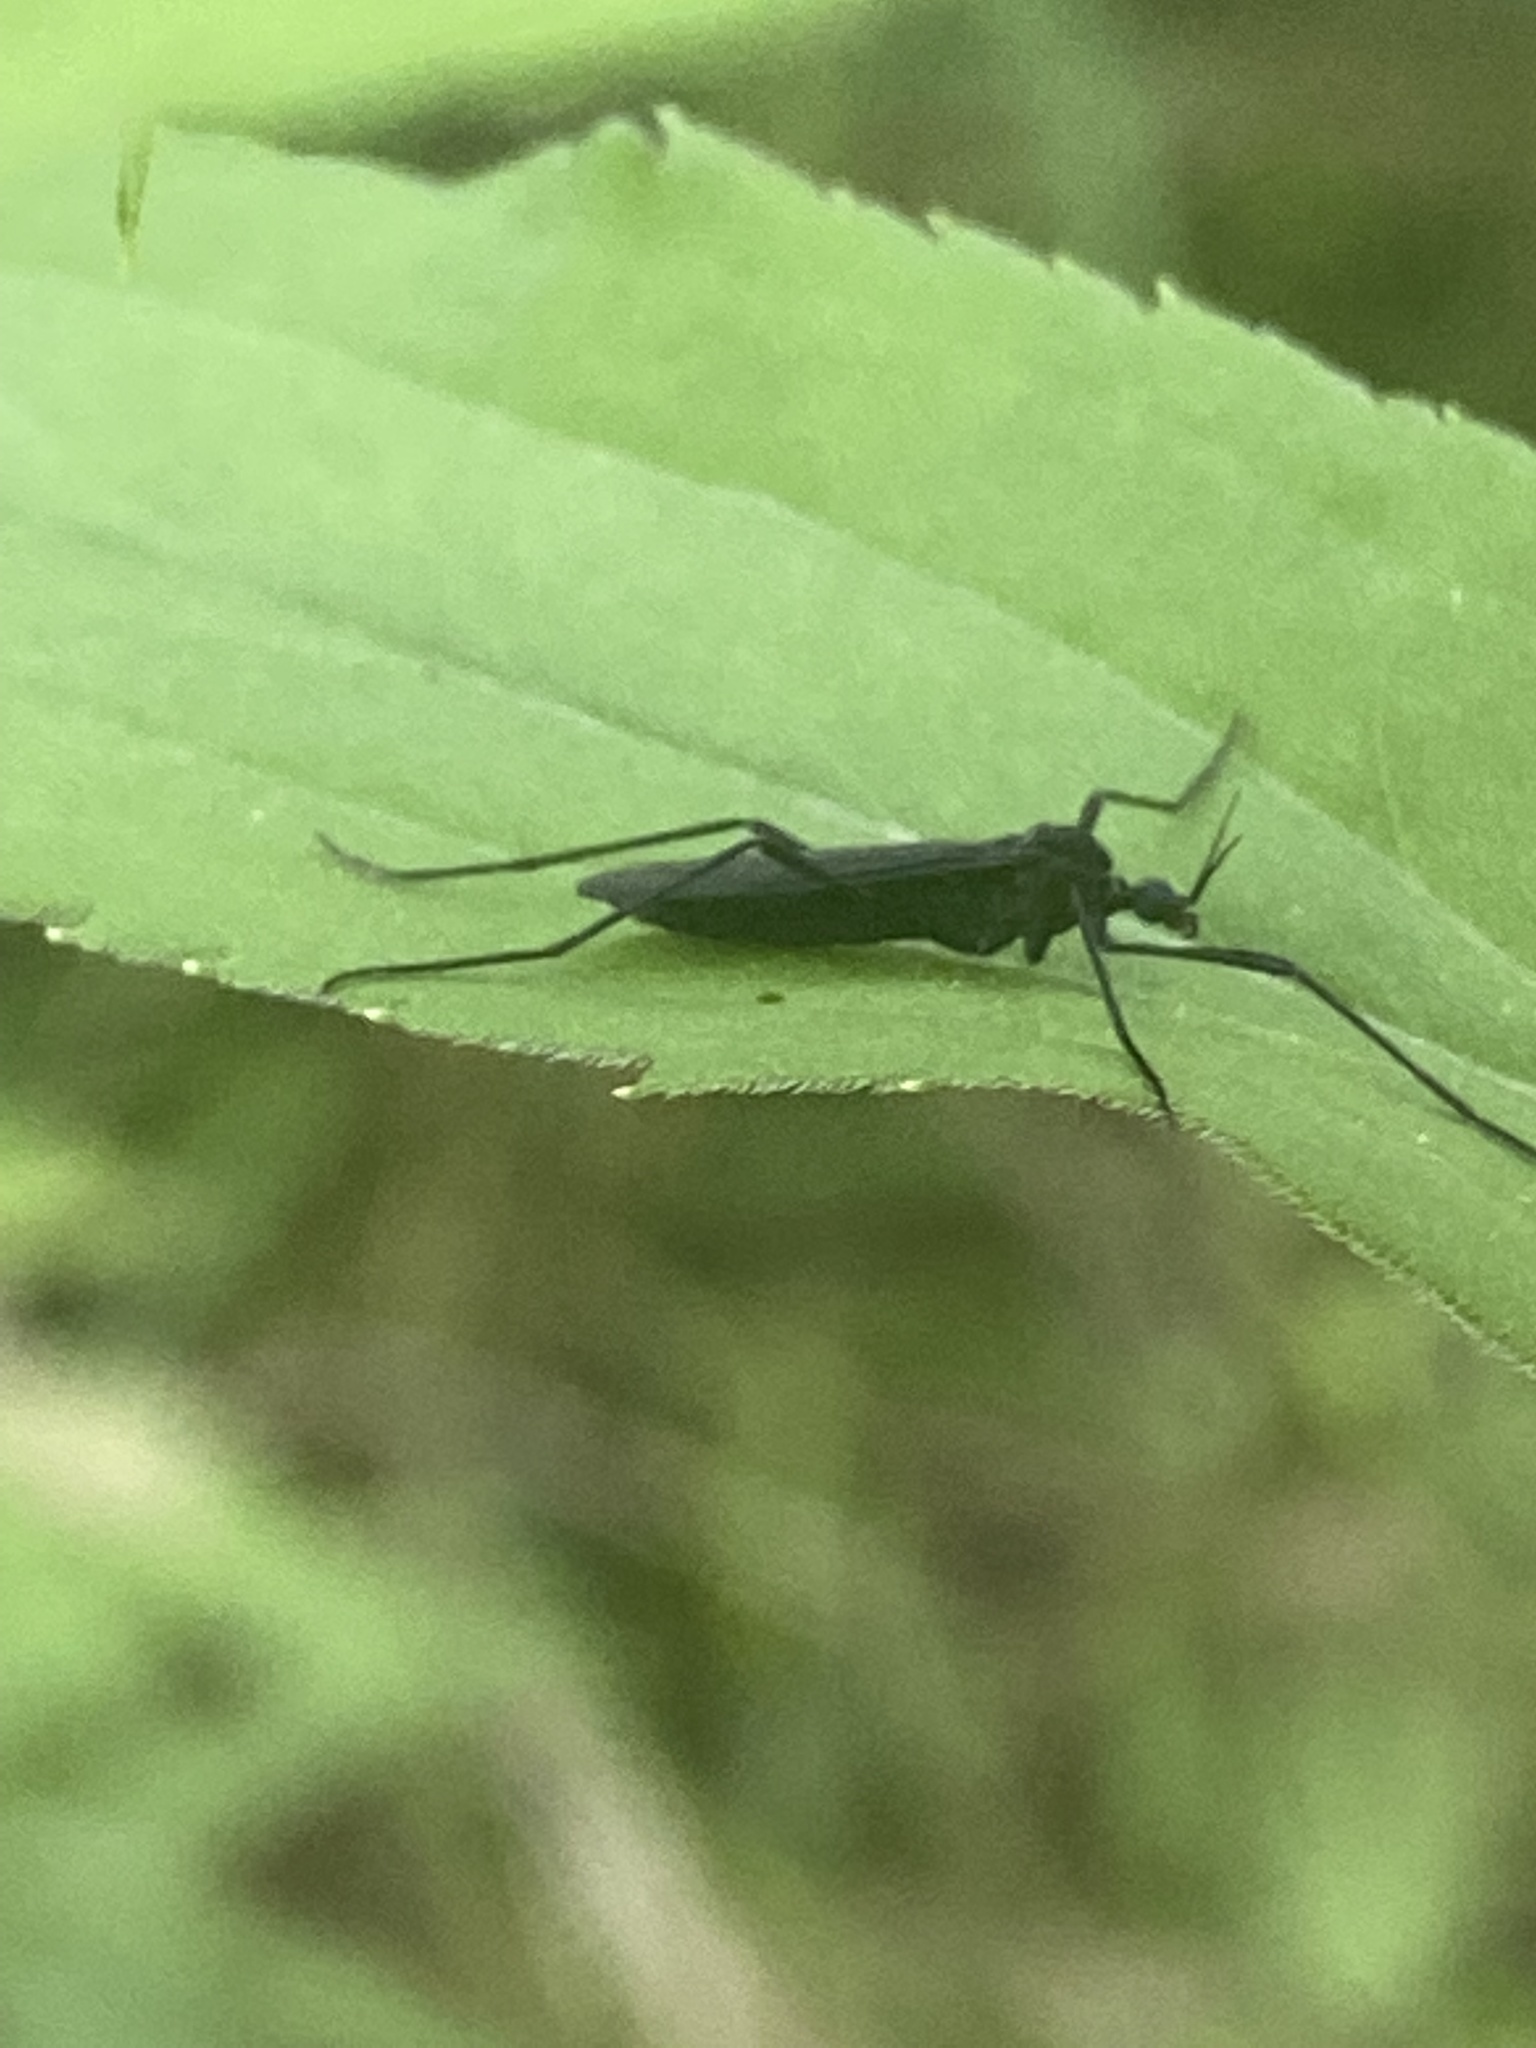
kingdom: Animalia
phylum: Arthropoda
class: Insecta
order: Diptera
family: Bibionidae
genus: Penthetria
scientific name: Penthetria heteroptera
